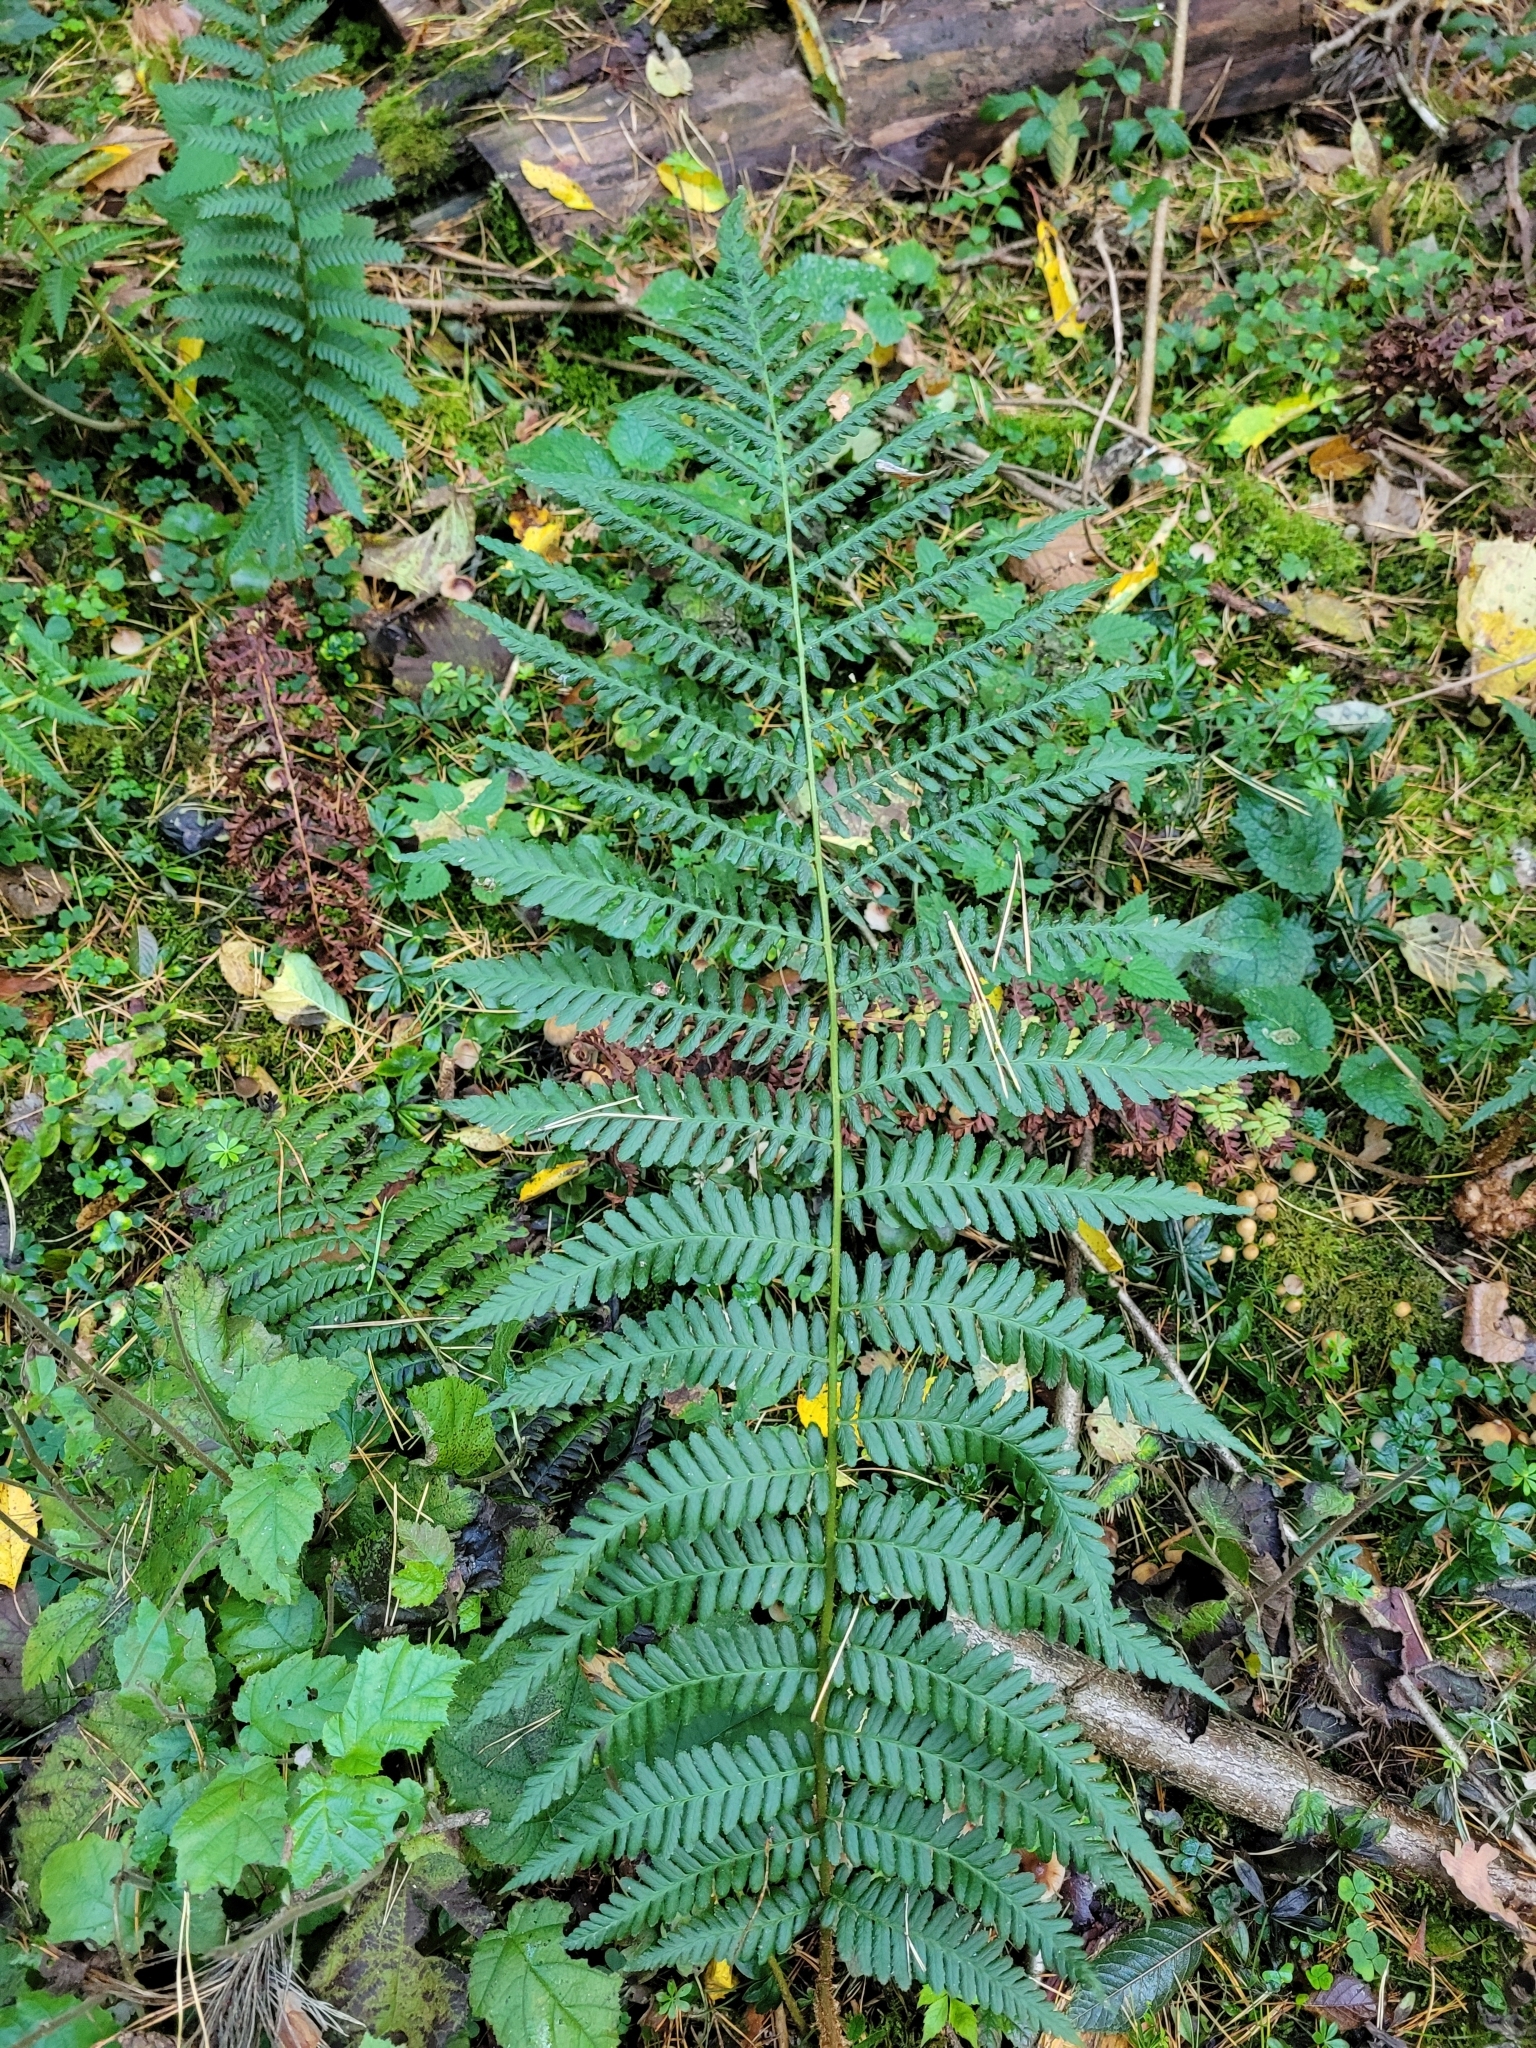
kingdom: Plantae
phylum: Tracheophyta
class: Polypodiopsida
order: Polypodiales
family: Dryopteridaceae
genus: Dryopteris
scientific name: Dryopteris filix-mas
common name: Male fern
